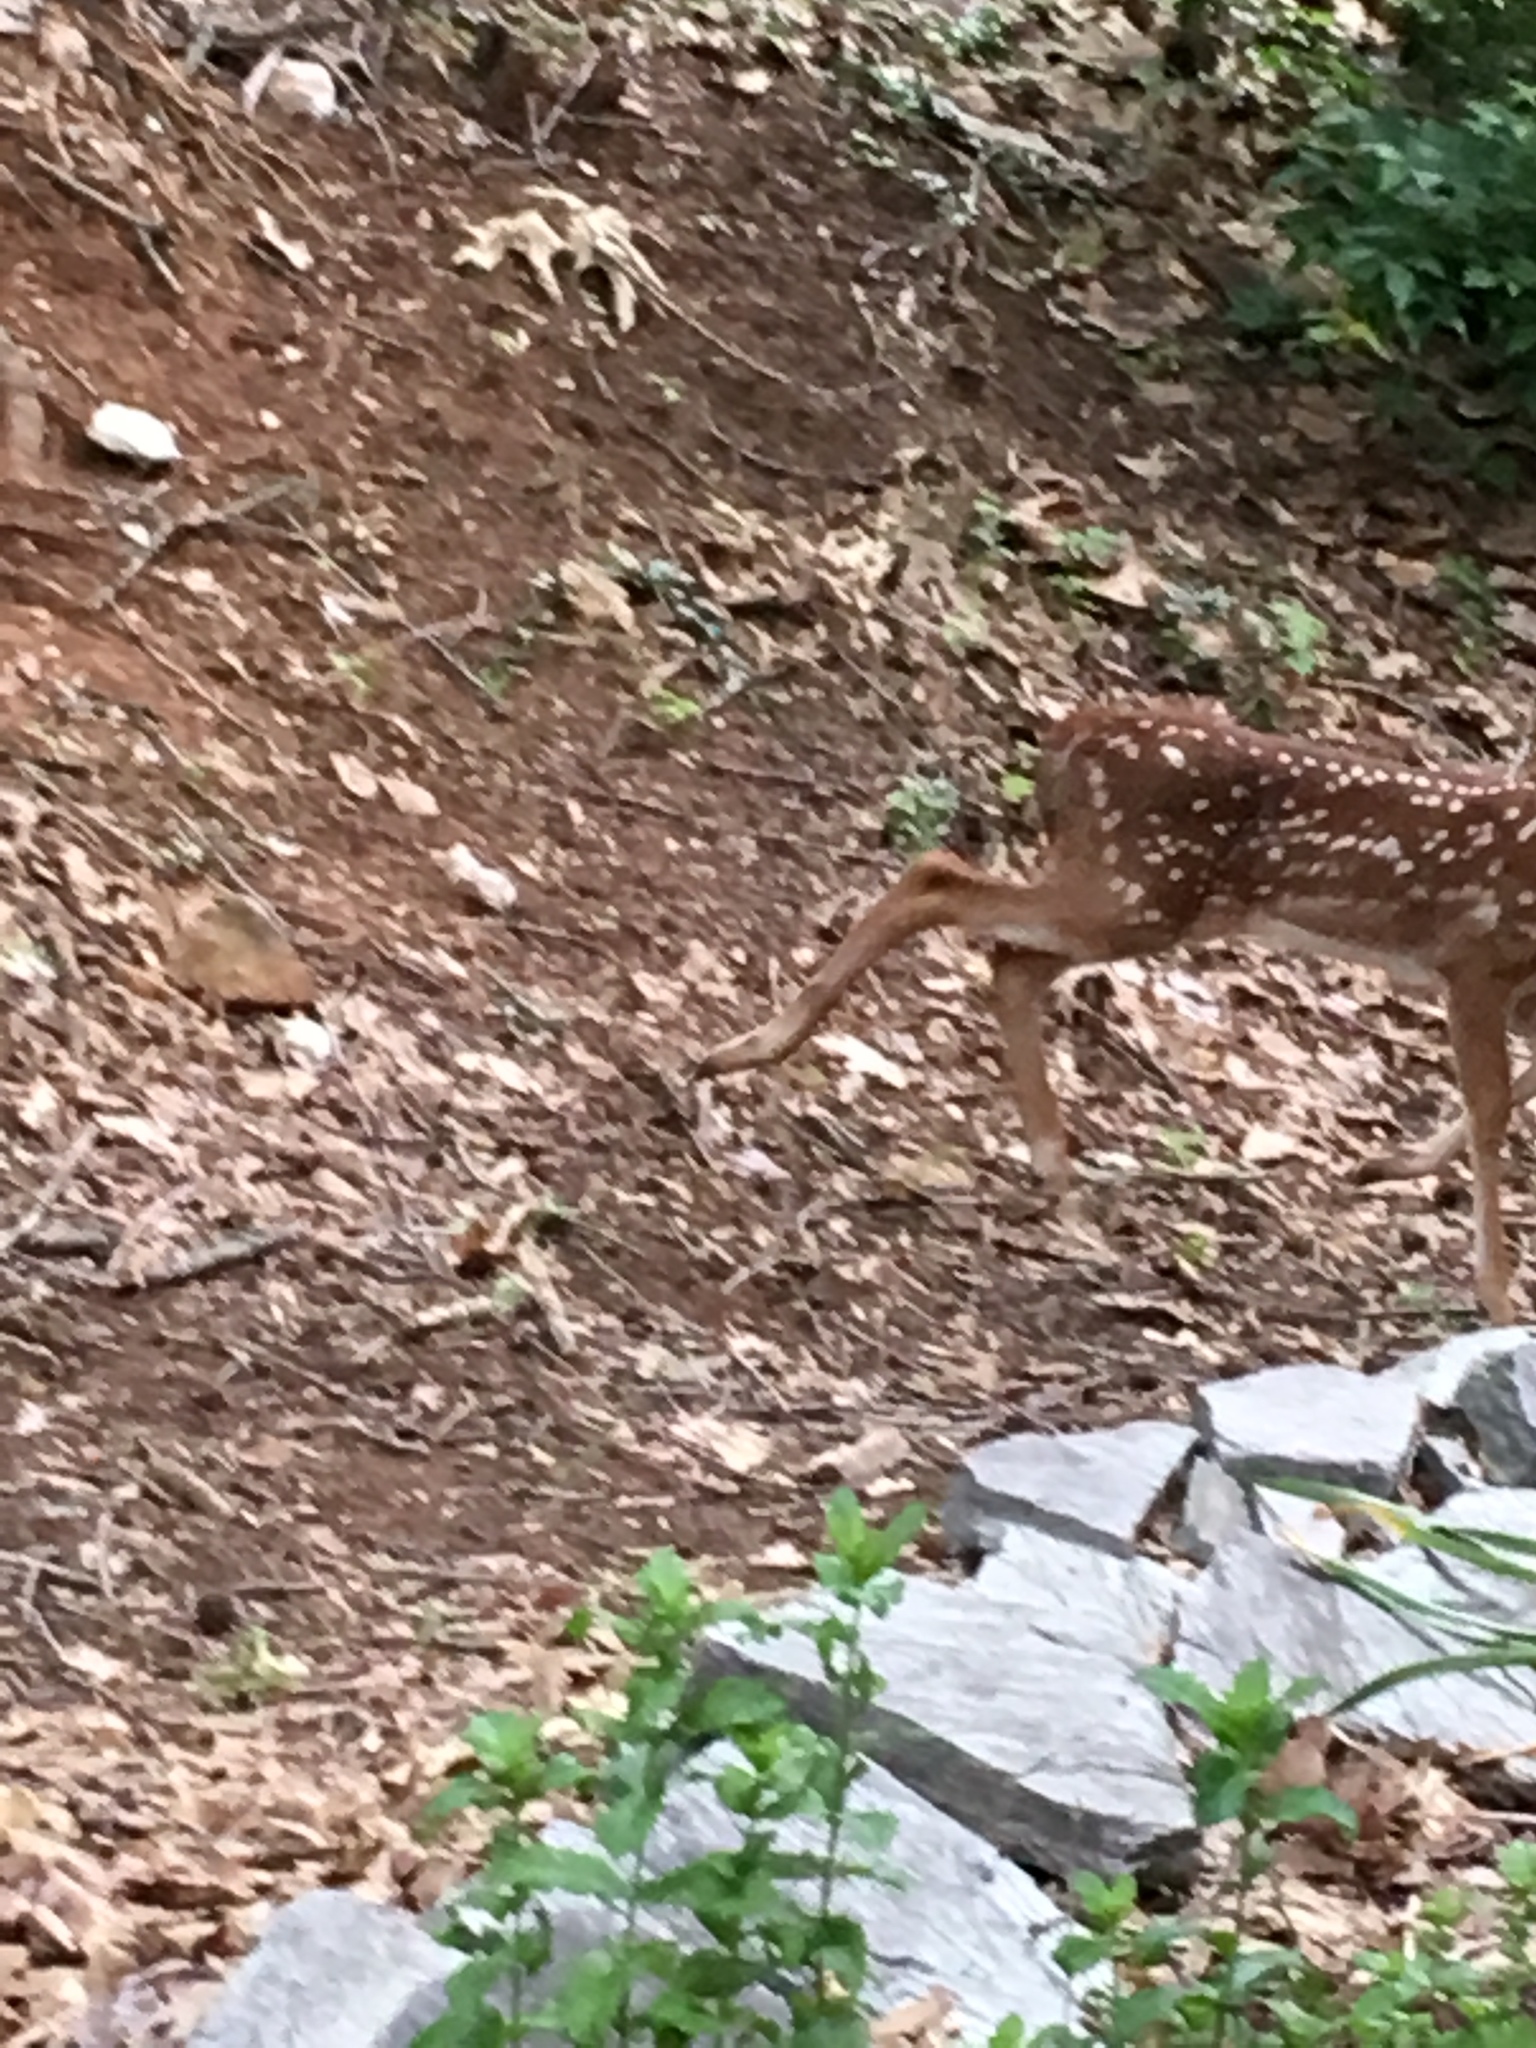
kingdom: Animalia
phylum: Chordata
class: Mammalia
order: Artiodactyla
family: Cervidae
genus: Odocoileus
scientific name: Odocoileus virginianus
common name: White-tailed deer
